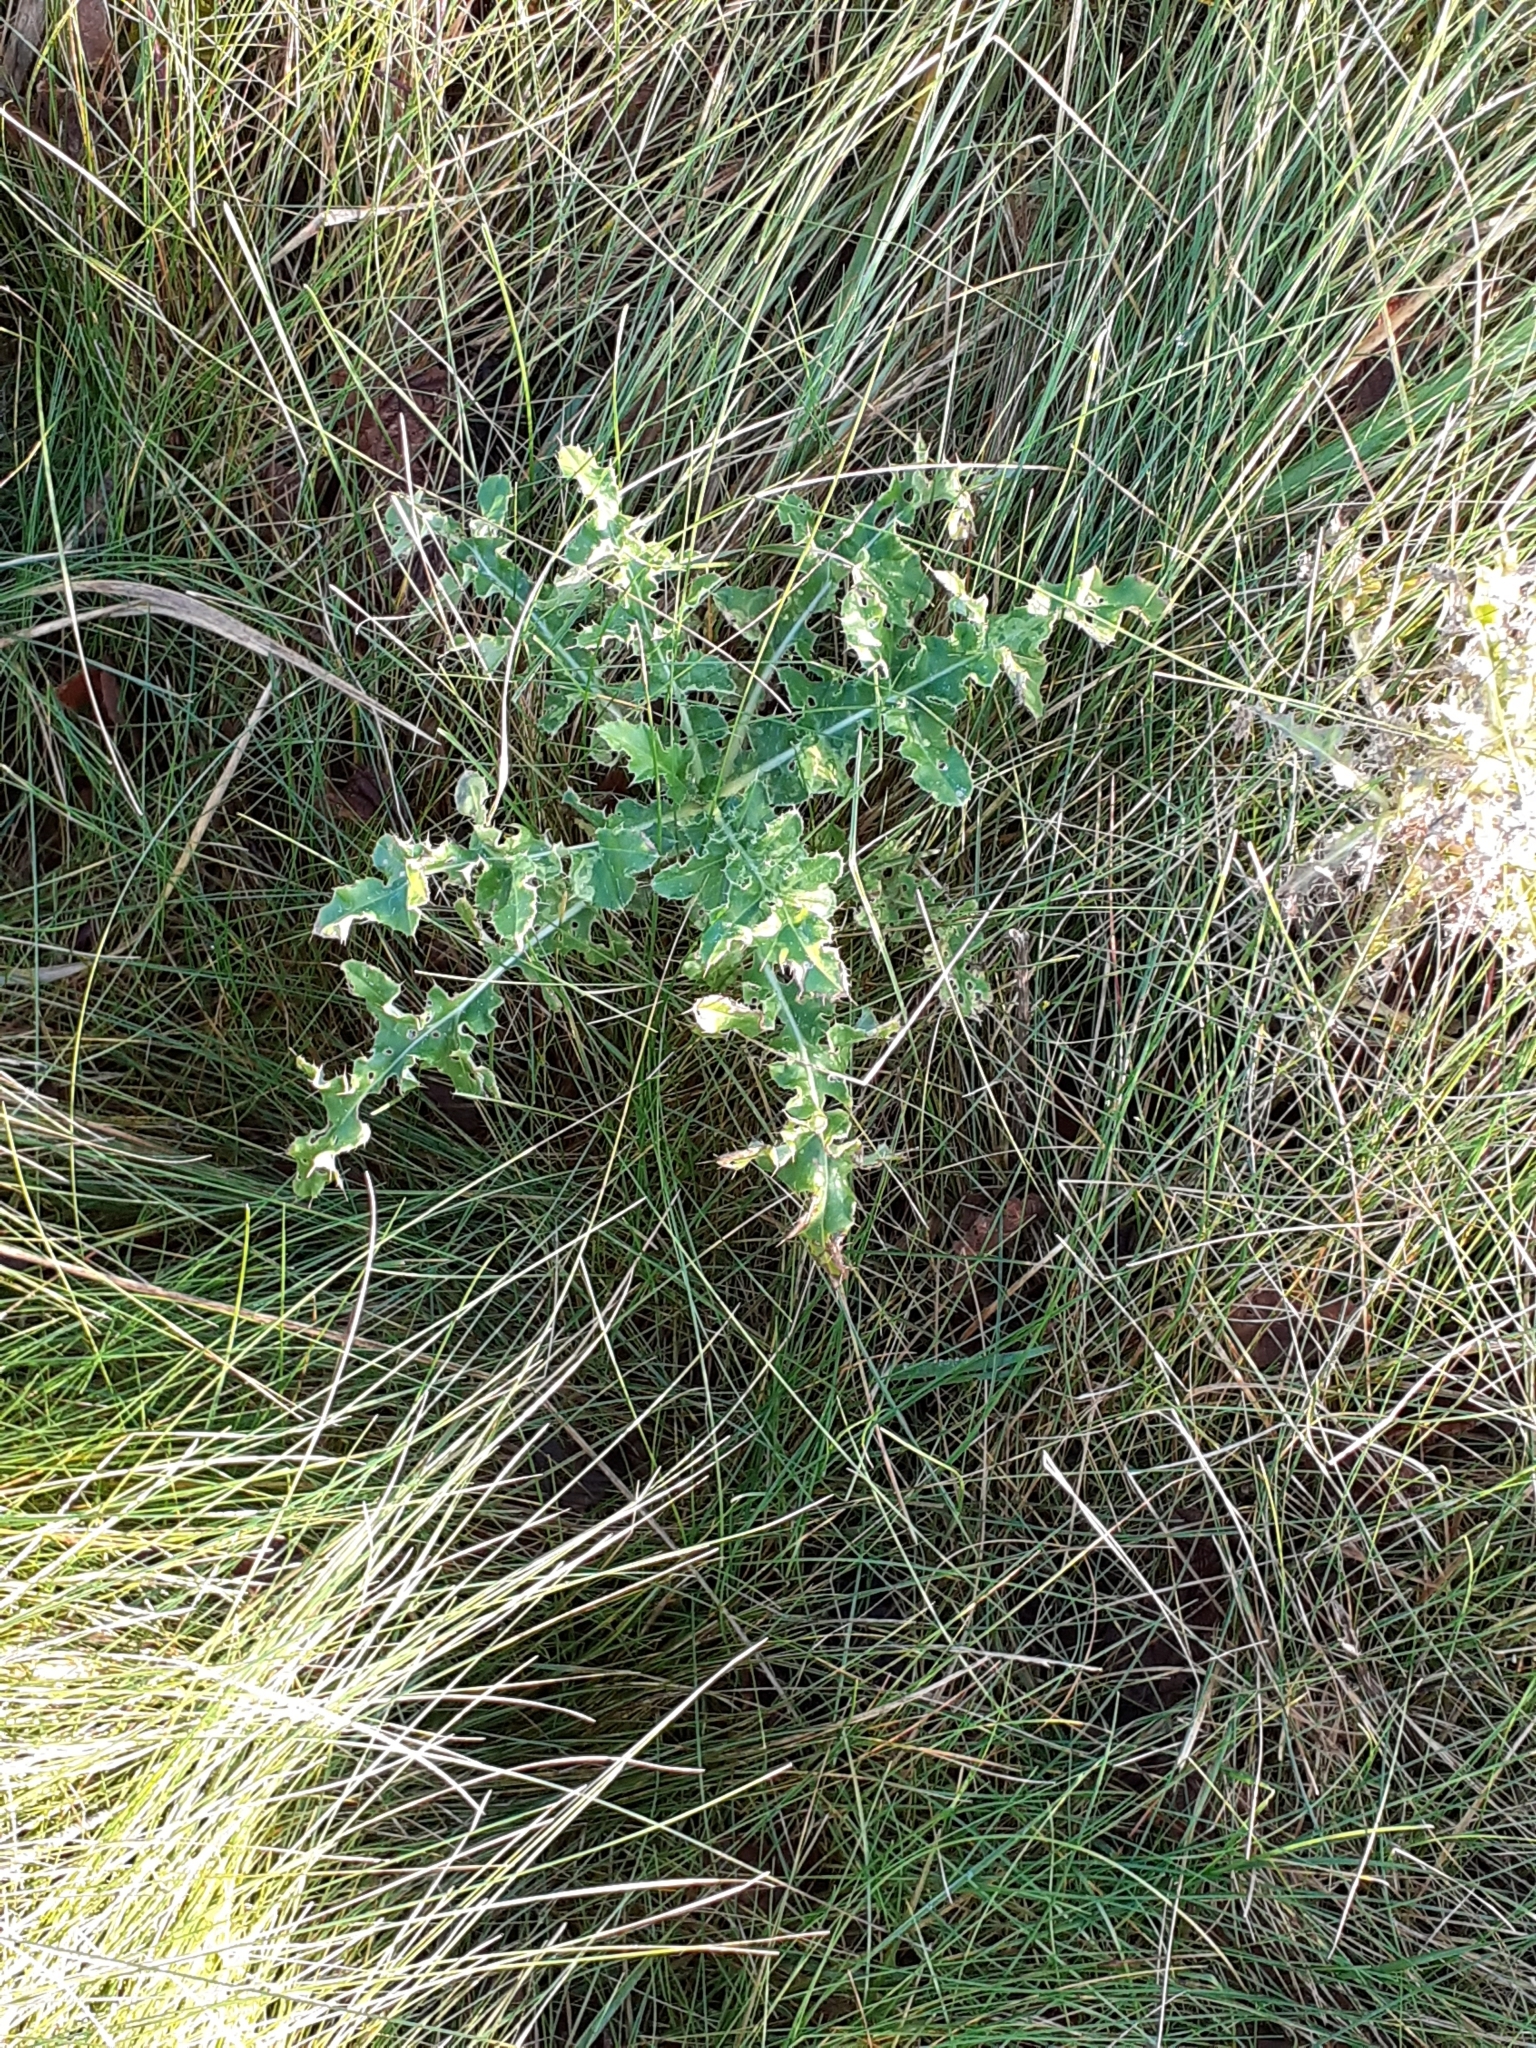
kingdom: Plantae
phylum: Tracheophyta
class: Magnoliopsida
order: Asterales
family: Asteraceae
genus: Cirsium
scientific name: Cirsium arvense
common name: Creeping thistle
